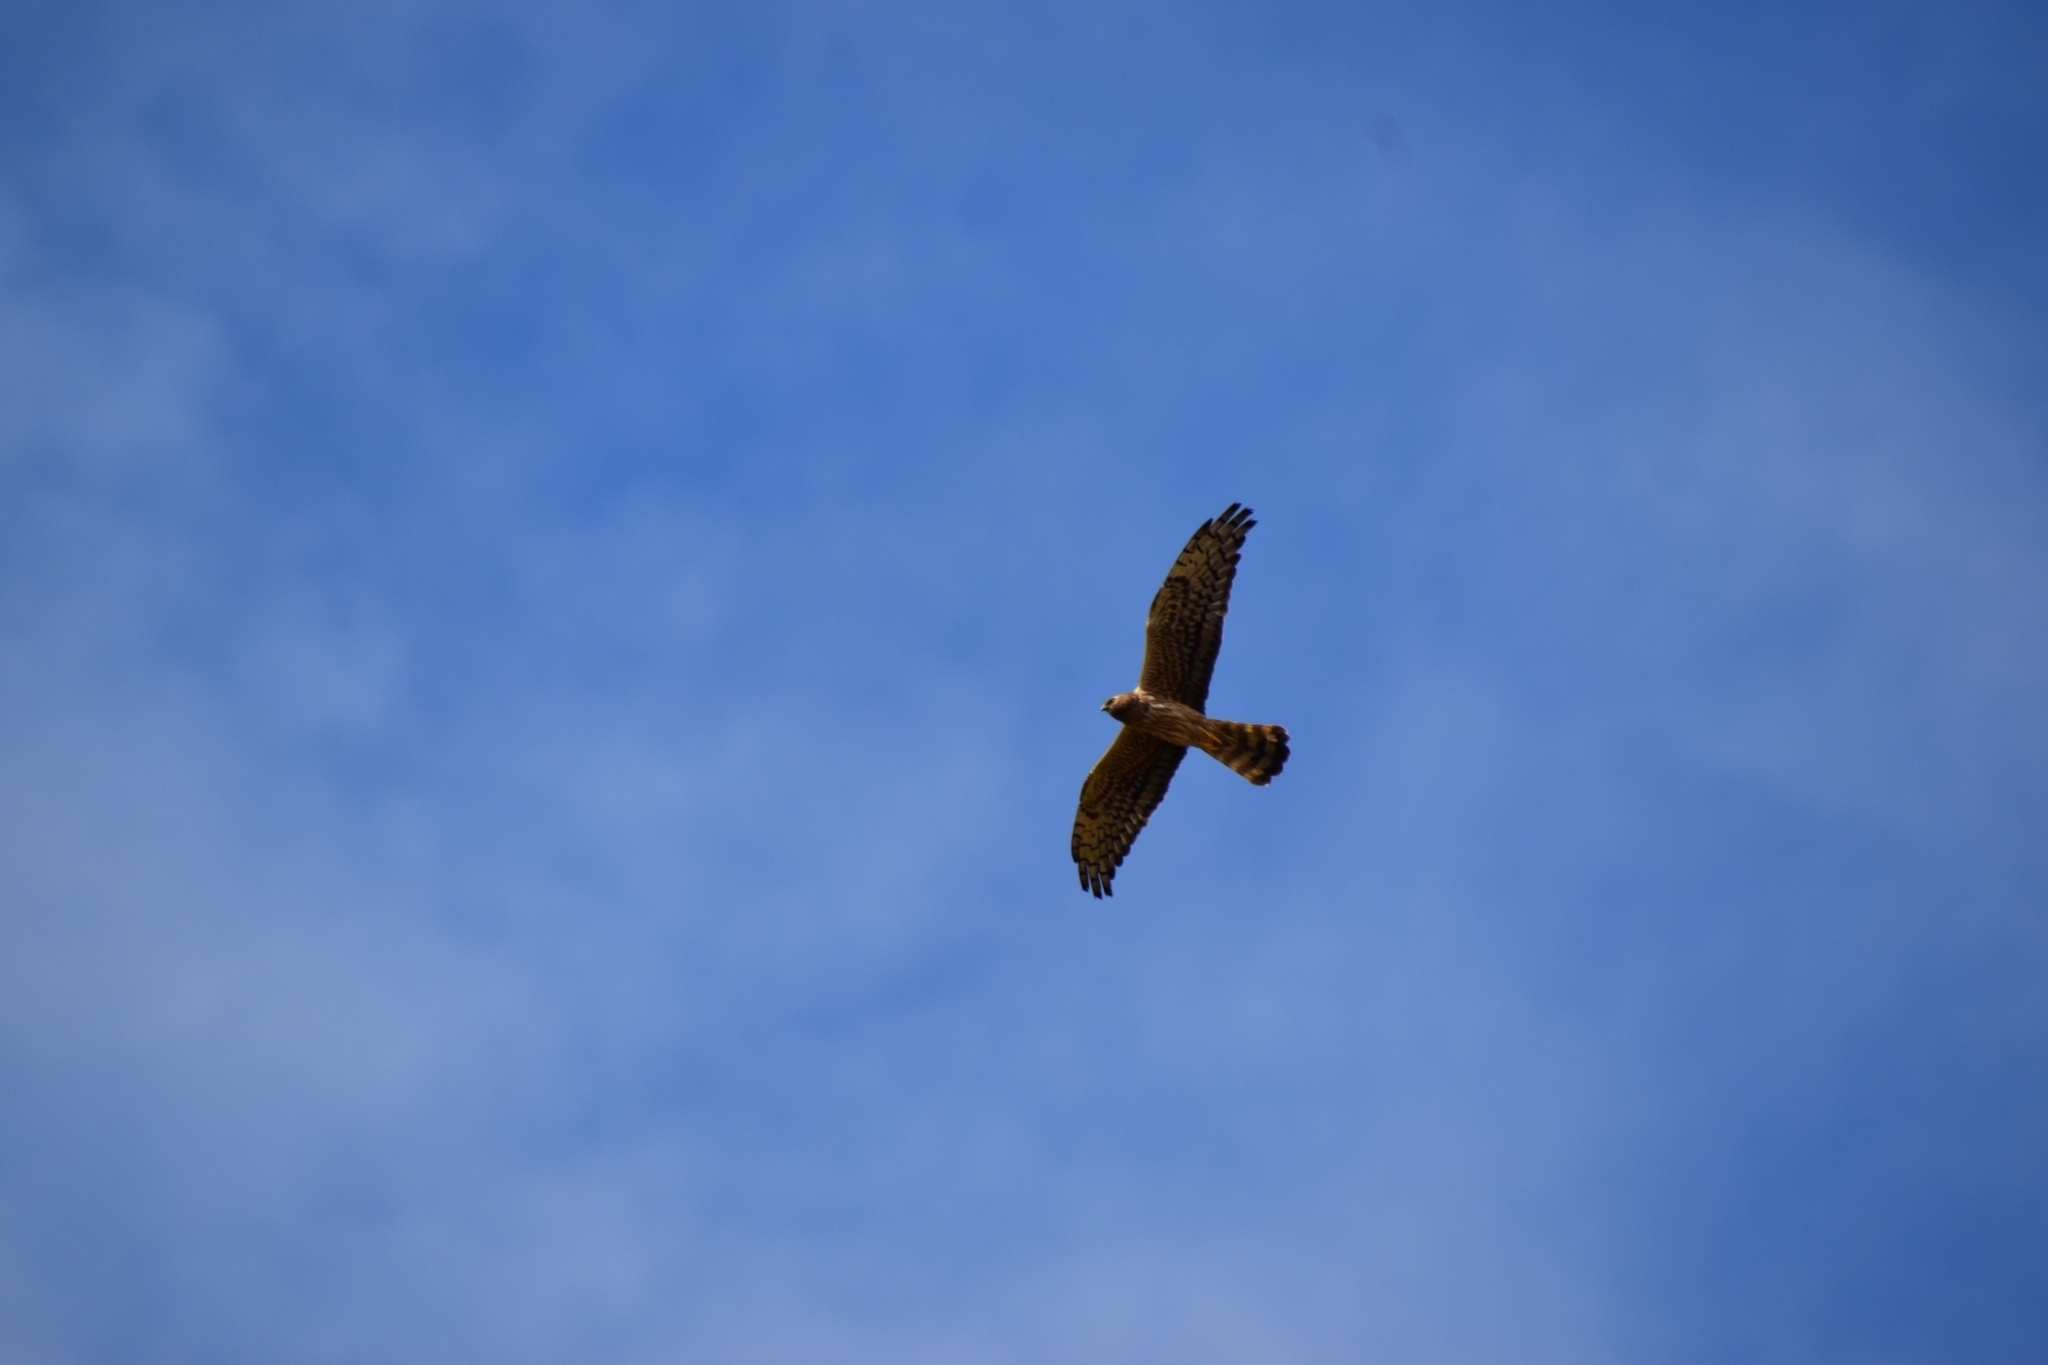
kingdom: Animalia
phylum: Chordata
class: Aves
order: Accipitriformes
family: Accipitridae
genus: Circus
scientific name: Circus pygargus
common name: Montagu's harrier
